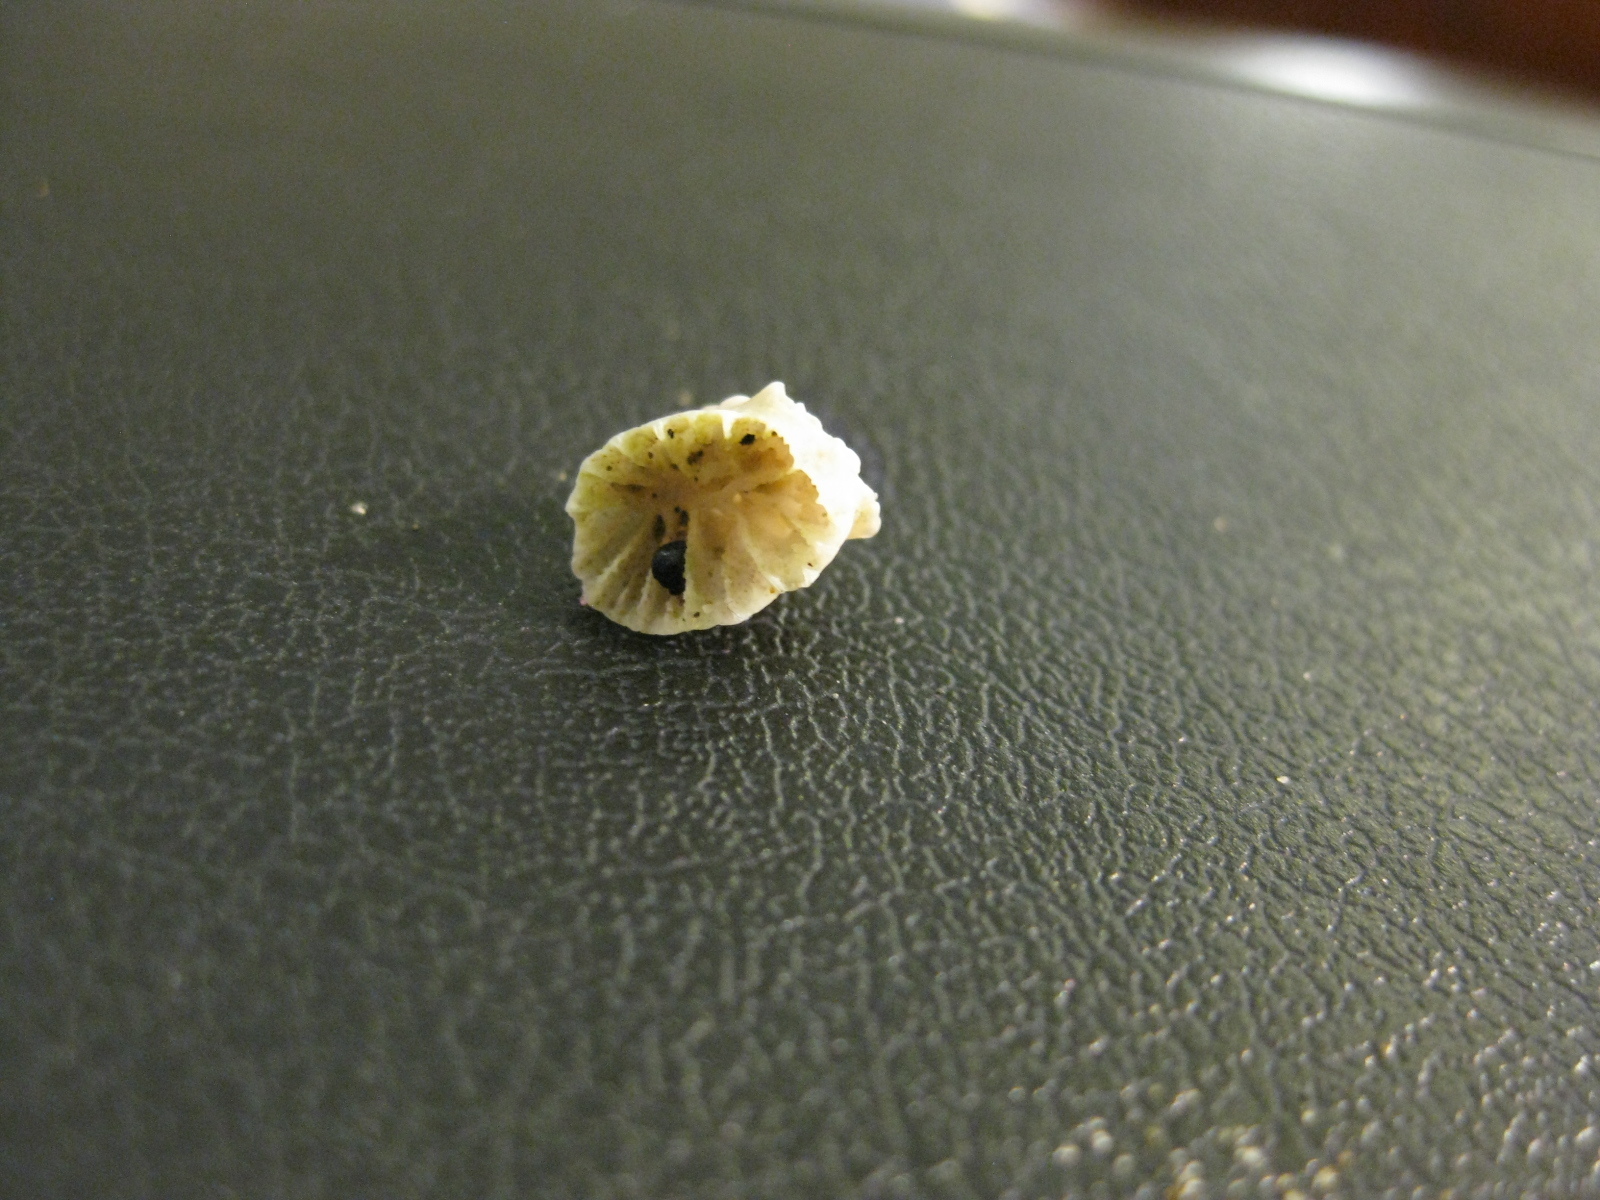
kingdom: Animalia
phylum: Cnidaria
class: Anthozoa
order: Scleractinia
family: Rhizangiidae
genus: Culicia
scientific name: Culicia rubeola
